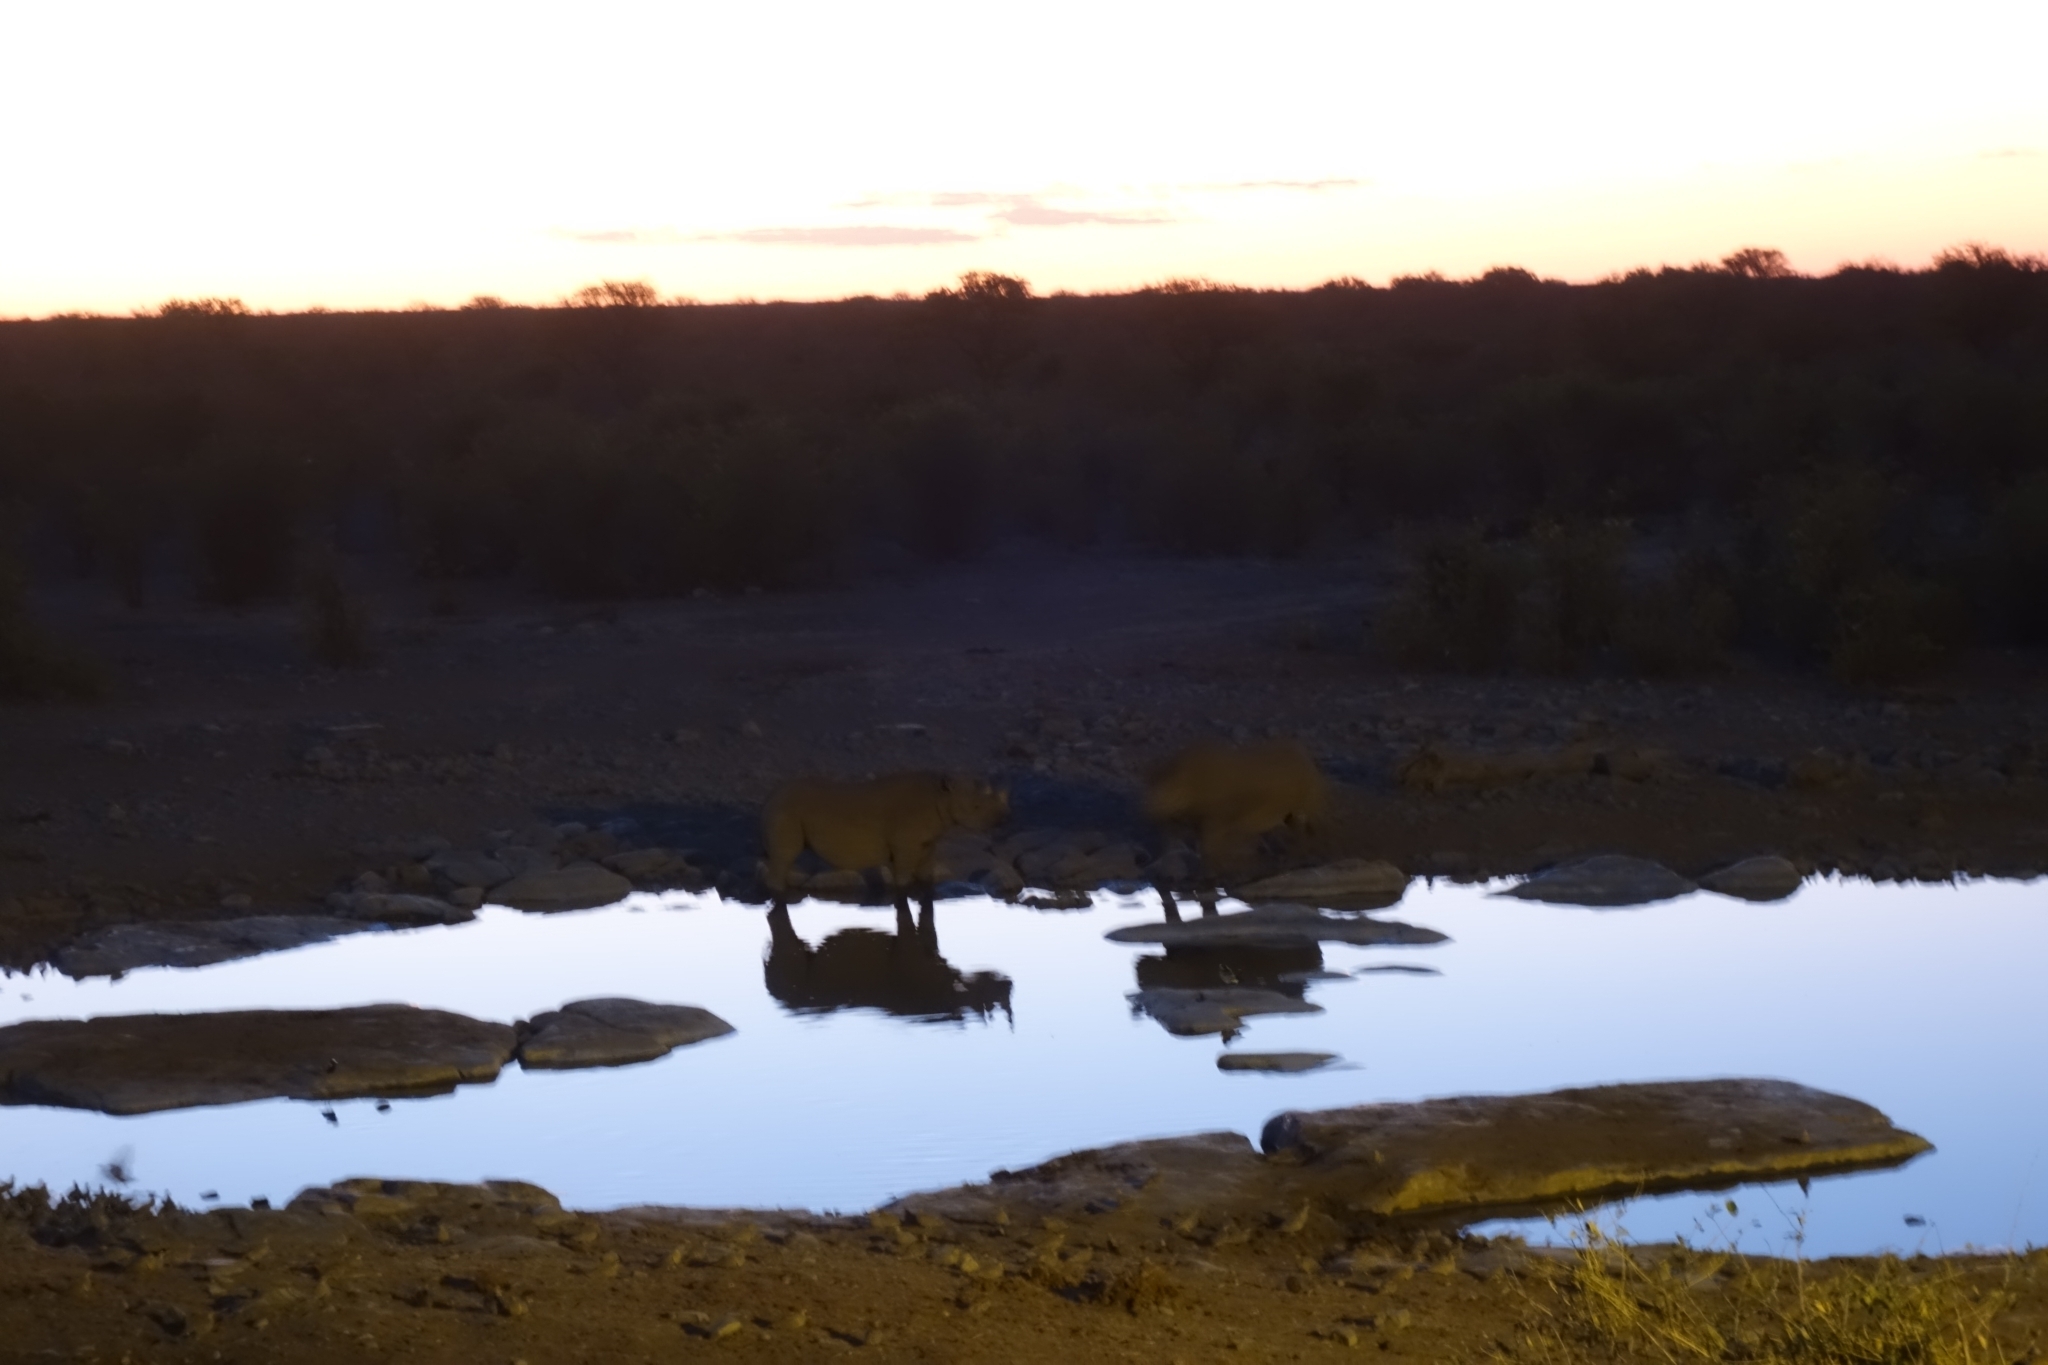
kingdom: Animalia
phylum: Chordata
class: Mammalia
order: Perissodactyla
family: Rhinocerotidae
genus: Diceros
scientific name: Diceros bicornis
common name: Black rhinoceros
